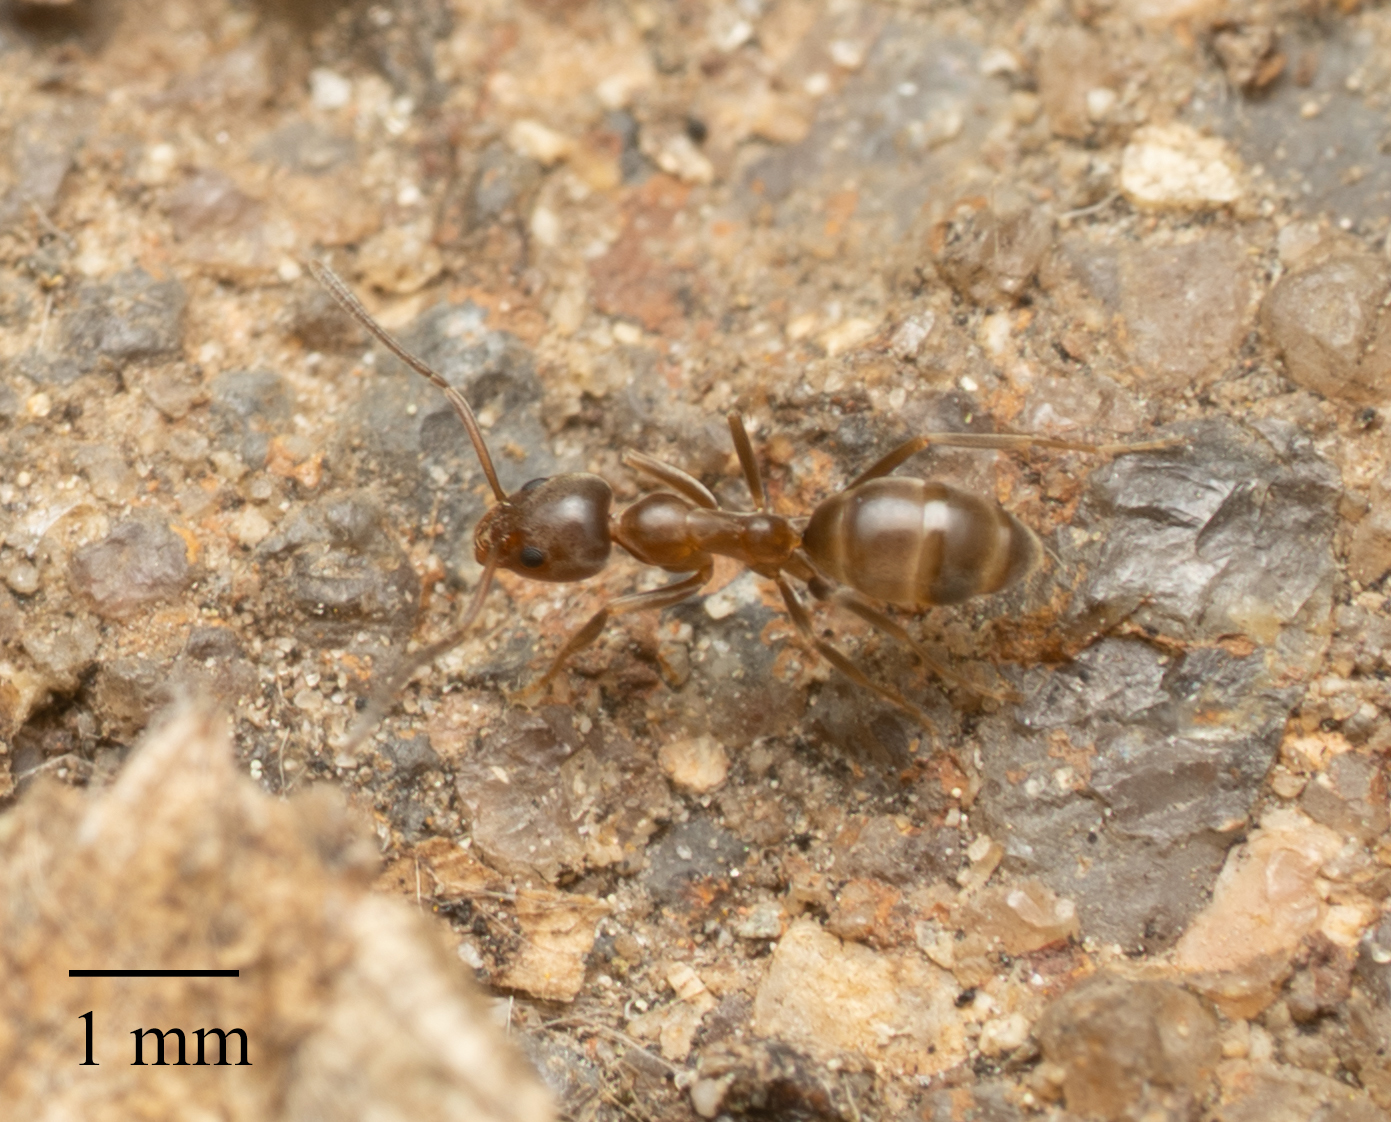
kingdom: Animalia
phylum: Arthropoda
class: Insecta
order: Hymenoptera
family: Formicidae
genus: Linepithema
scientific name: Linepithema humile
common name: Argentine ant
